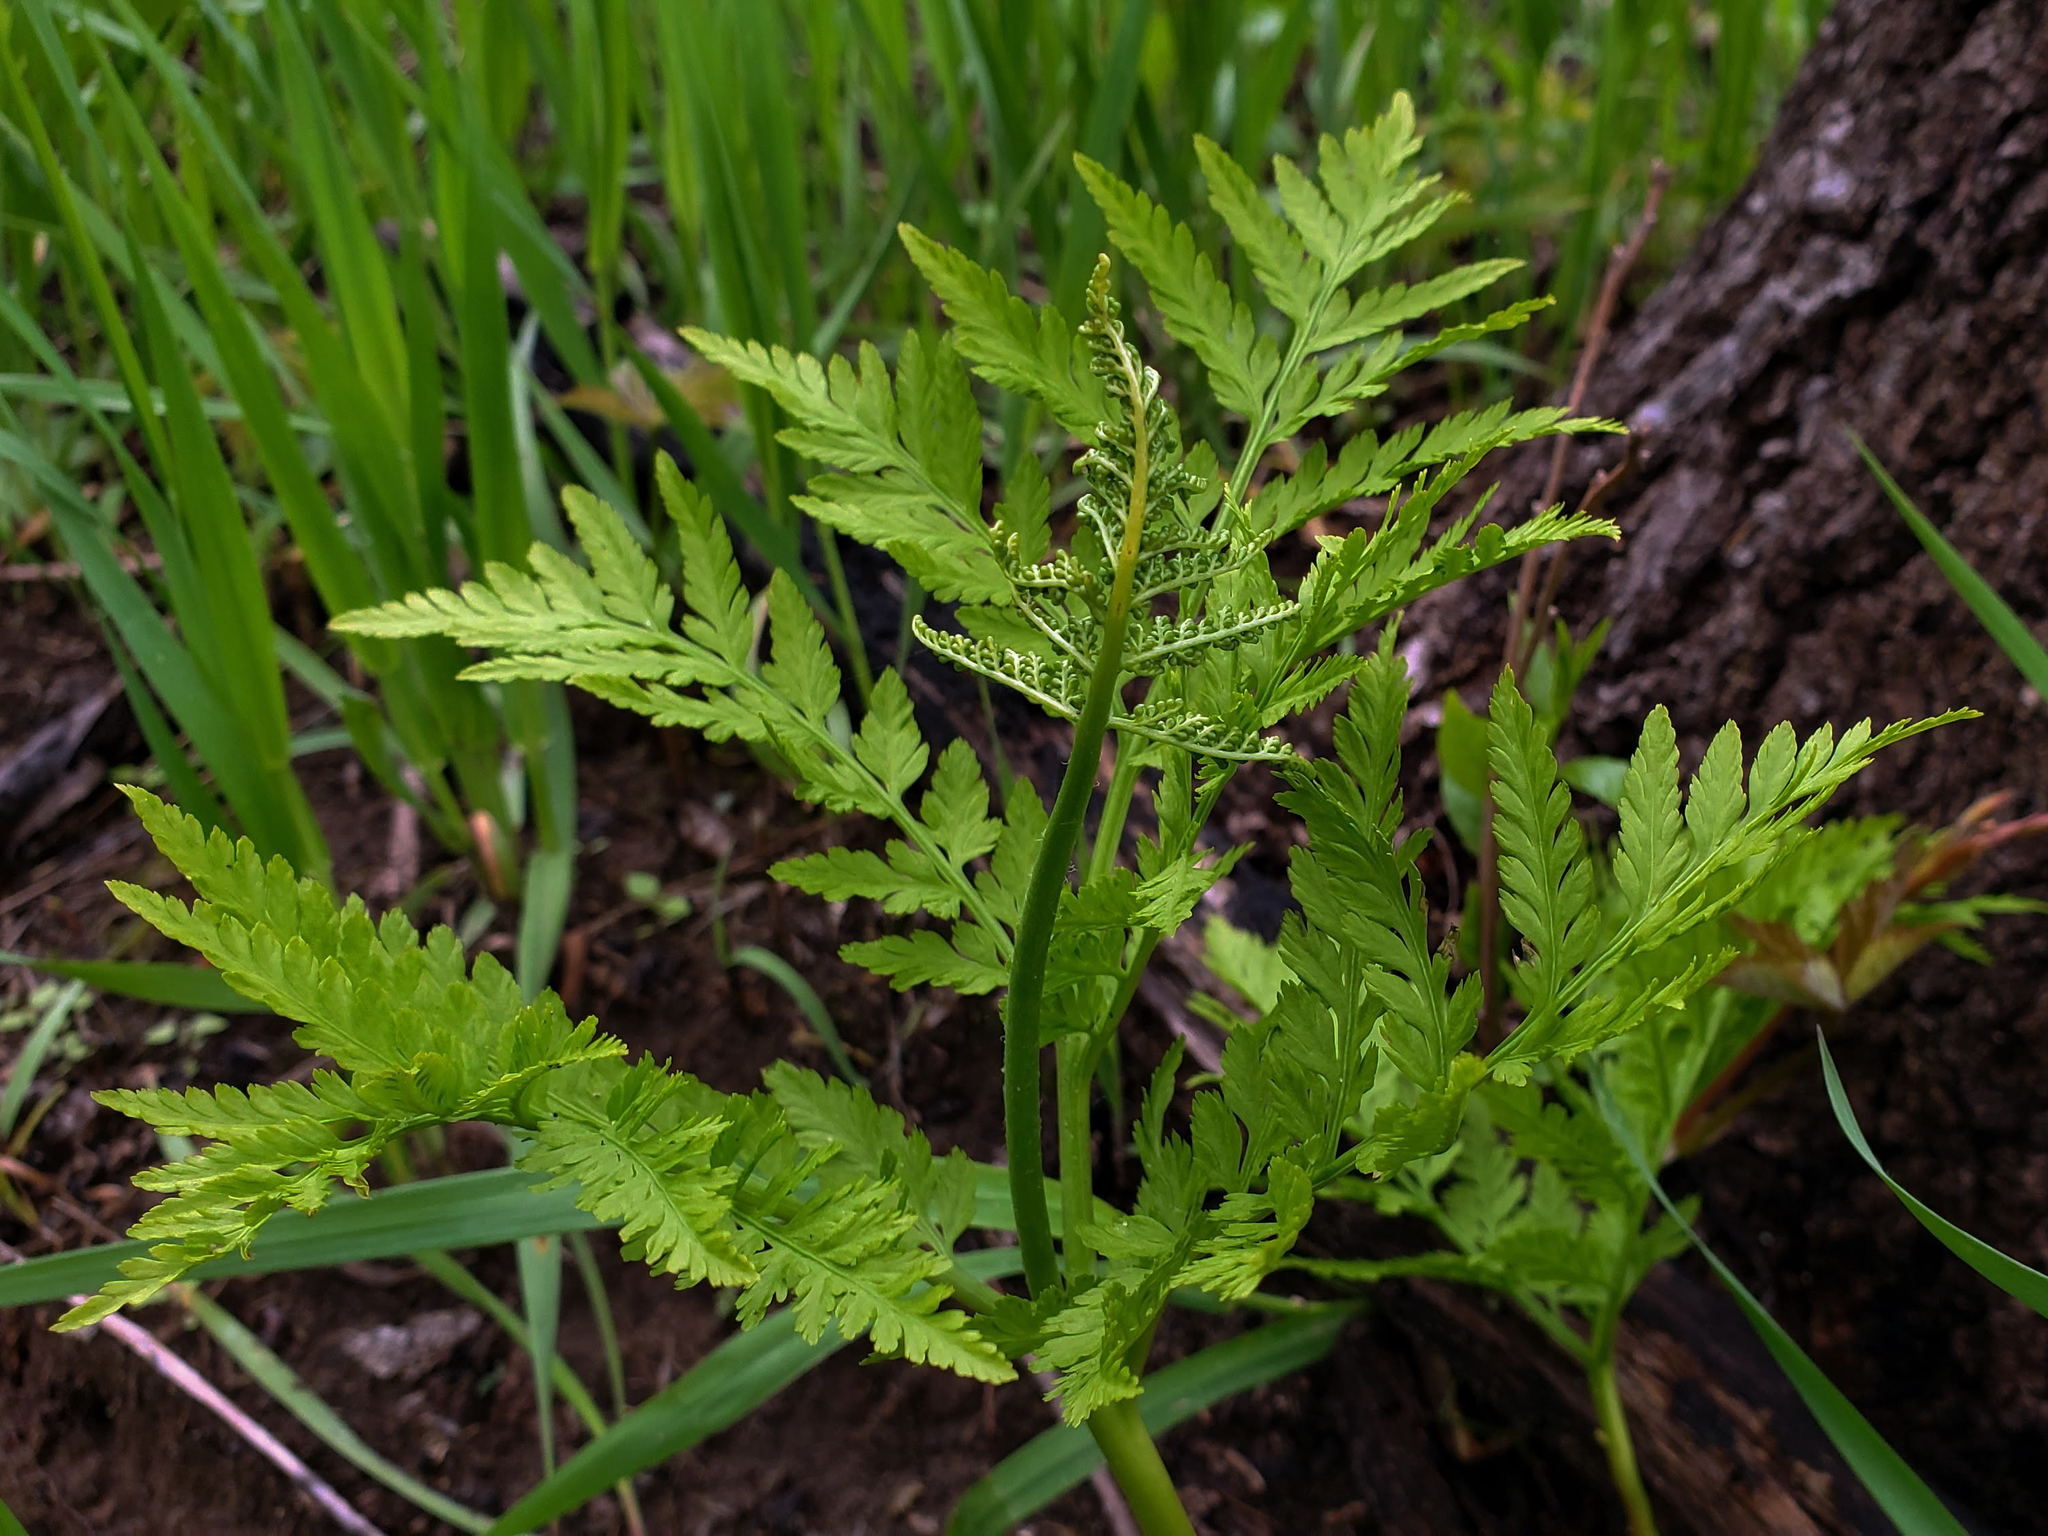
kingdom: Plantae
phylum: Tracheophyta
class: Polypodiopsida
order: Ophioglossales
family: Ophioglossaceae
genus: Botrypus
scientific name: Botrypus virginianus
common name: Common grapefern
